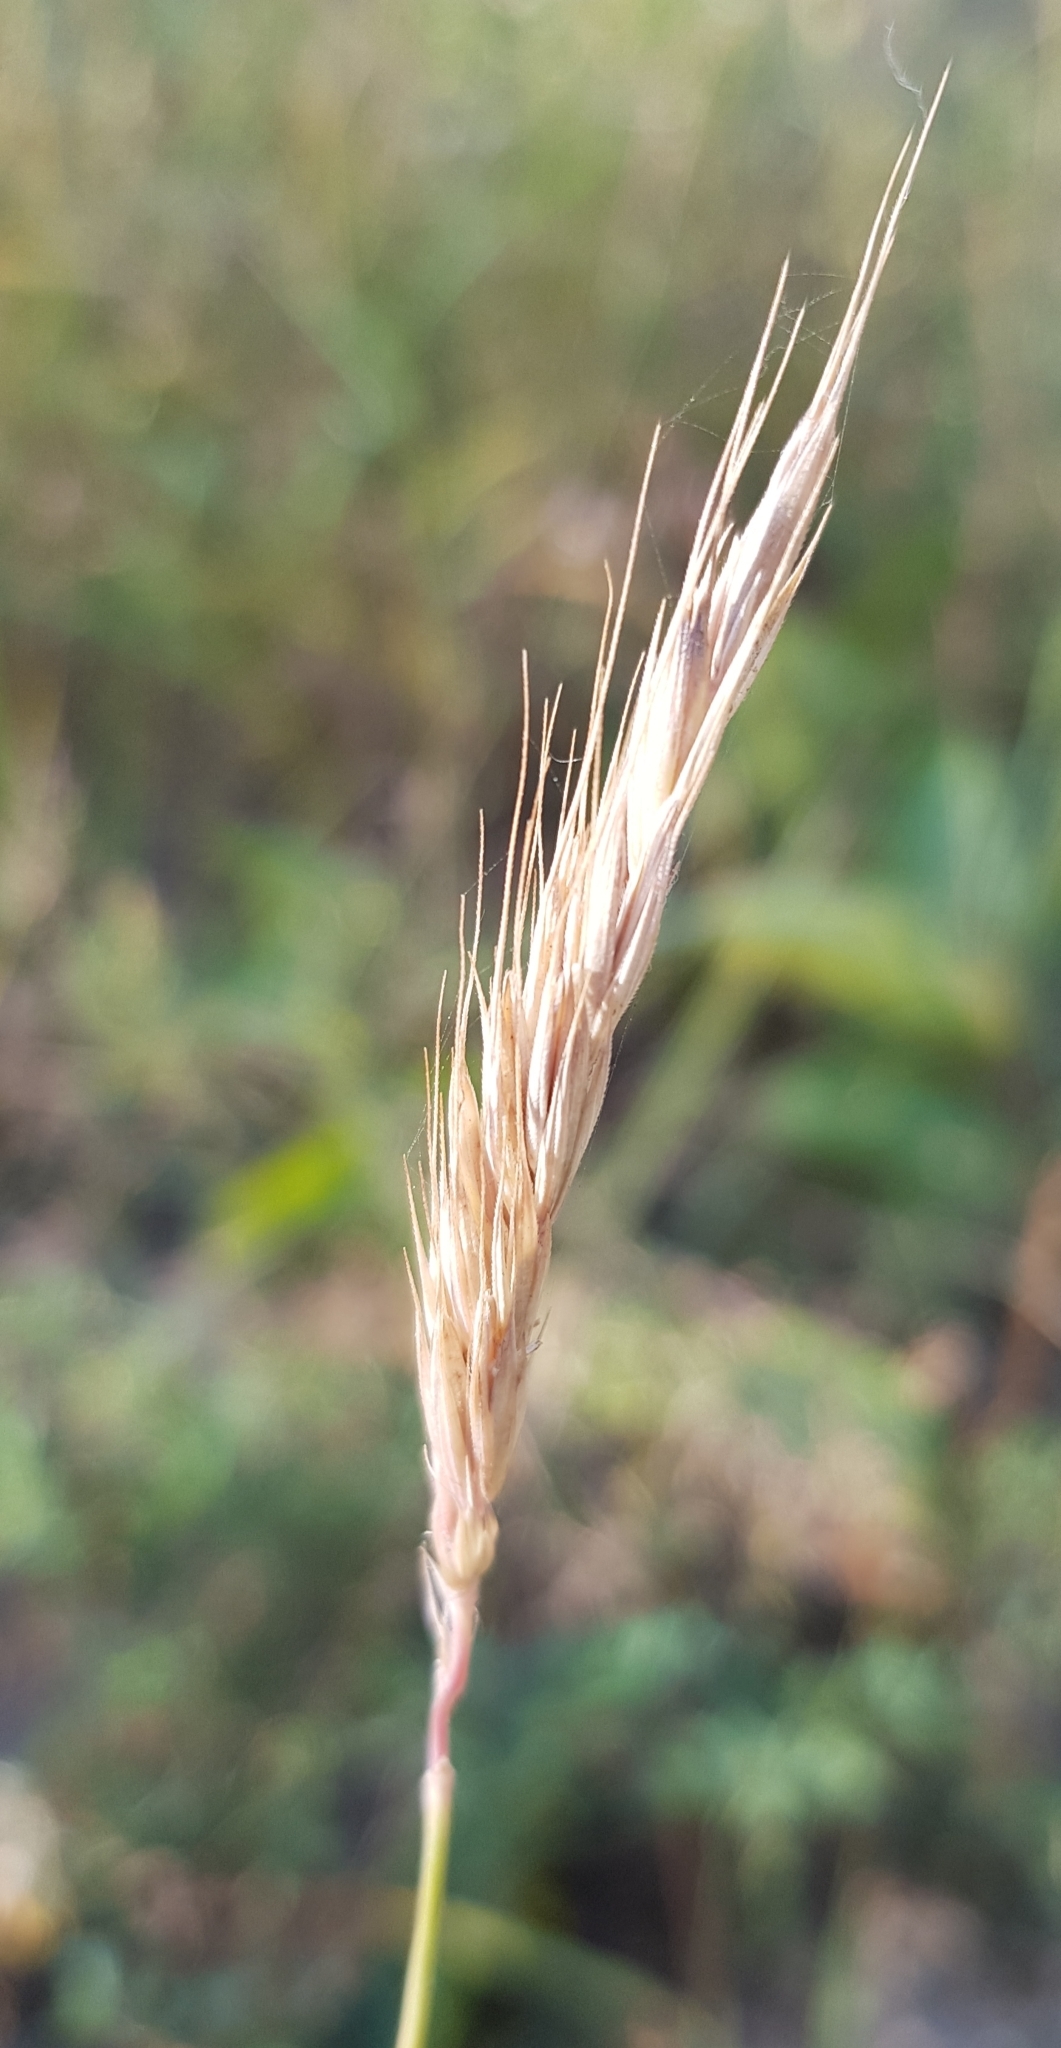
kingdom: Plantae
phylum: Tracheophyta
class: Liliopsida
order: Poales
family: Poaceae
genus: Elymus
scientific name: Elymus repens
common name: Quackgrass
